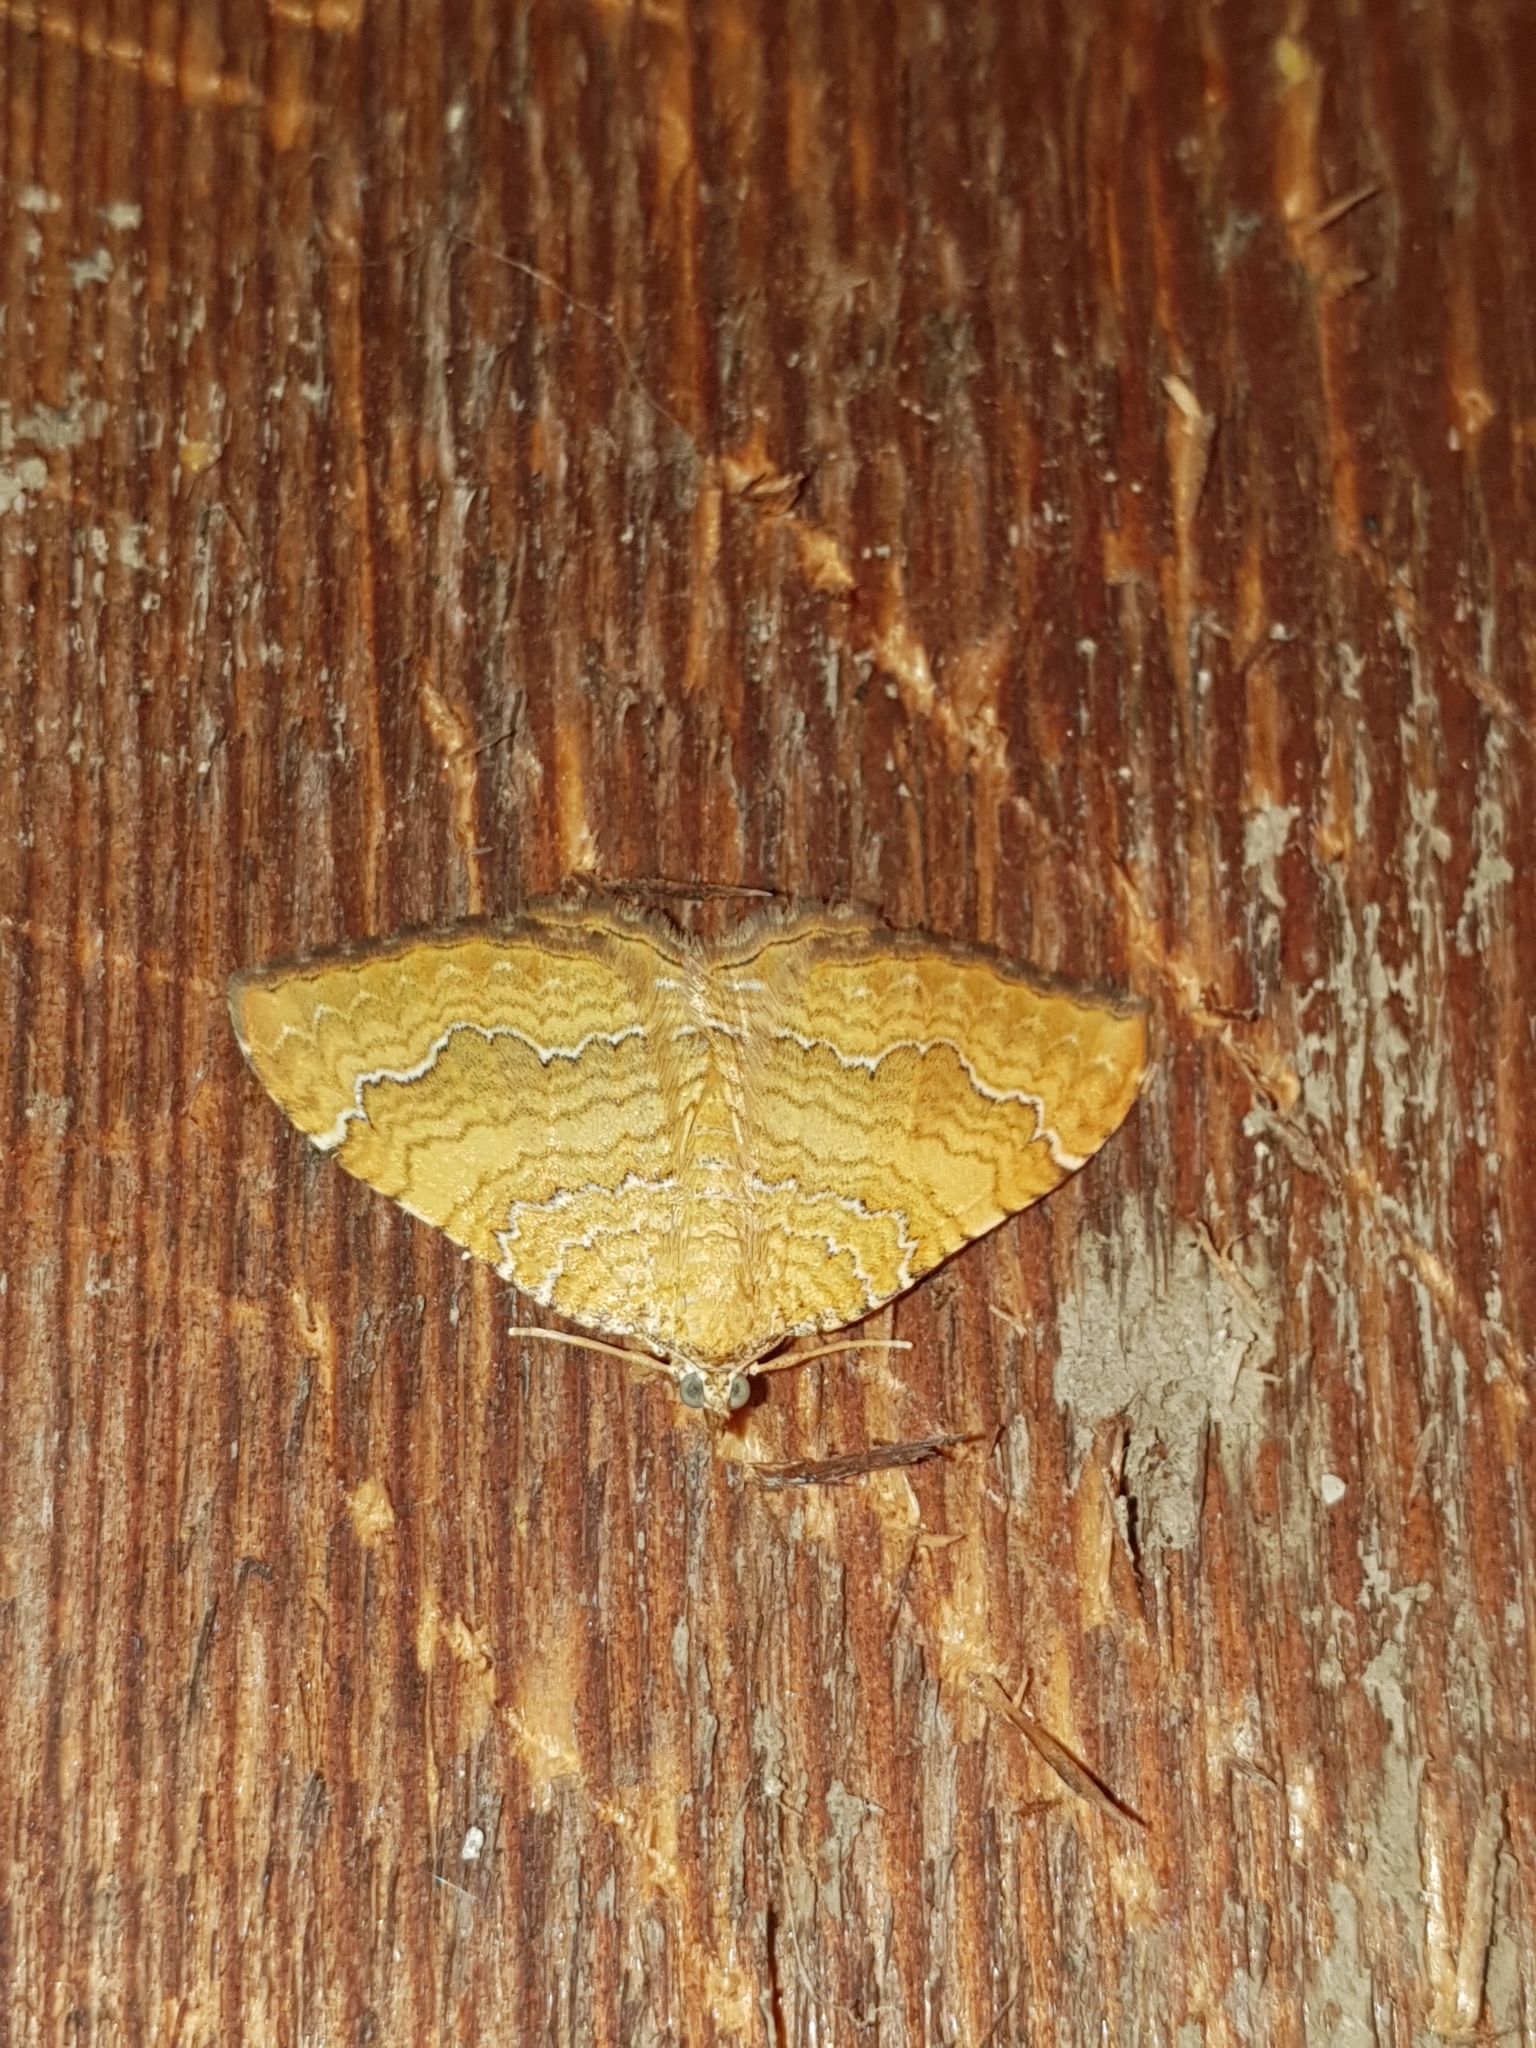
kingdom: Animalia
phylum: Arthropoda
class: Insecta
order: Lepidoptera
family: Geometridae
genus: Camptogramma
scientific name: Camptogramma bilineata
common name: Yellow shell
